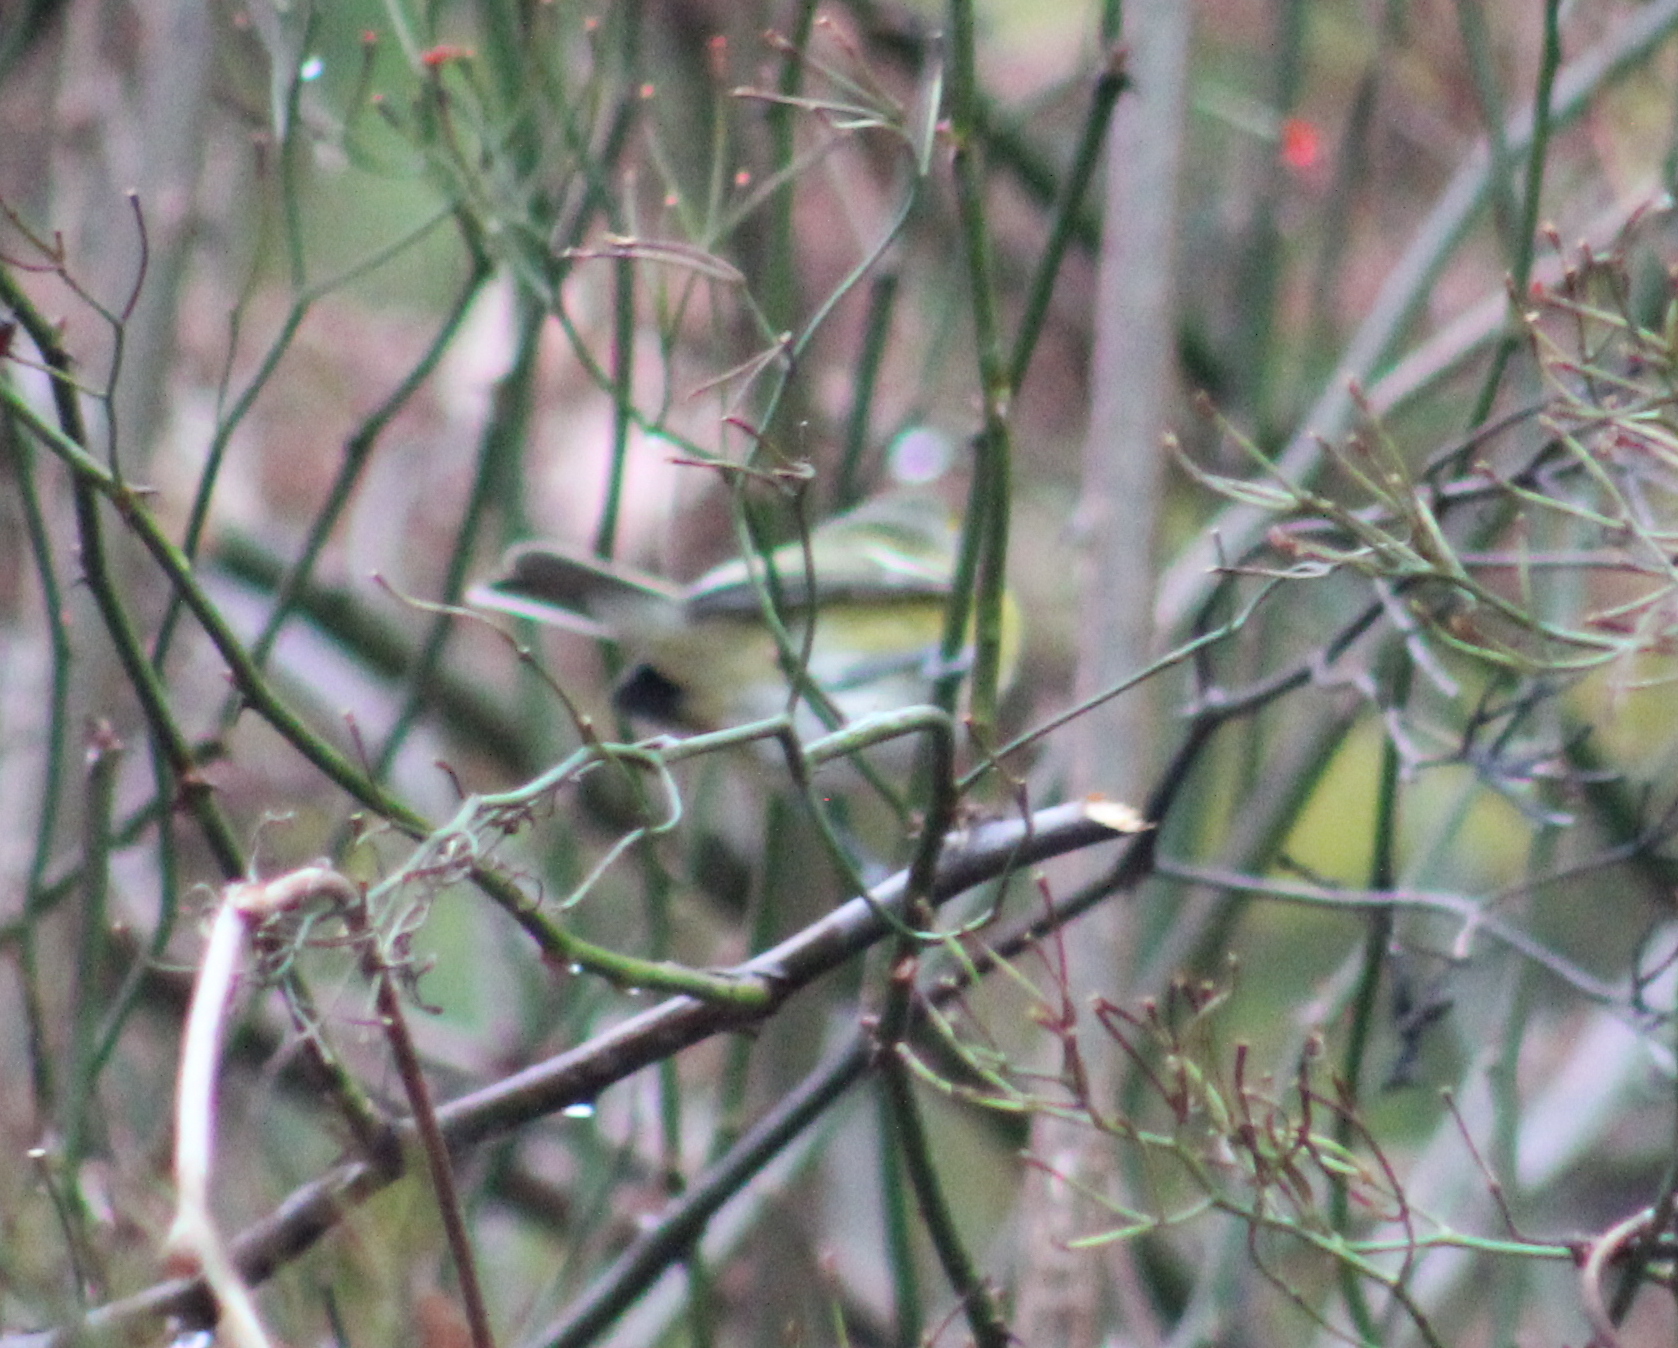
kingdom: Animalia
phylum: Chordata
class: Aves
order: Passeriformes
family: Vireonidae
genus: Vireo
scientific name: Vireo griseus
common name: White-eyed vireo
